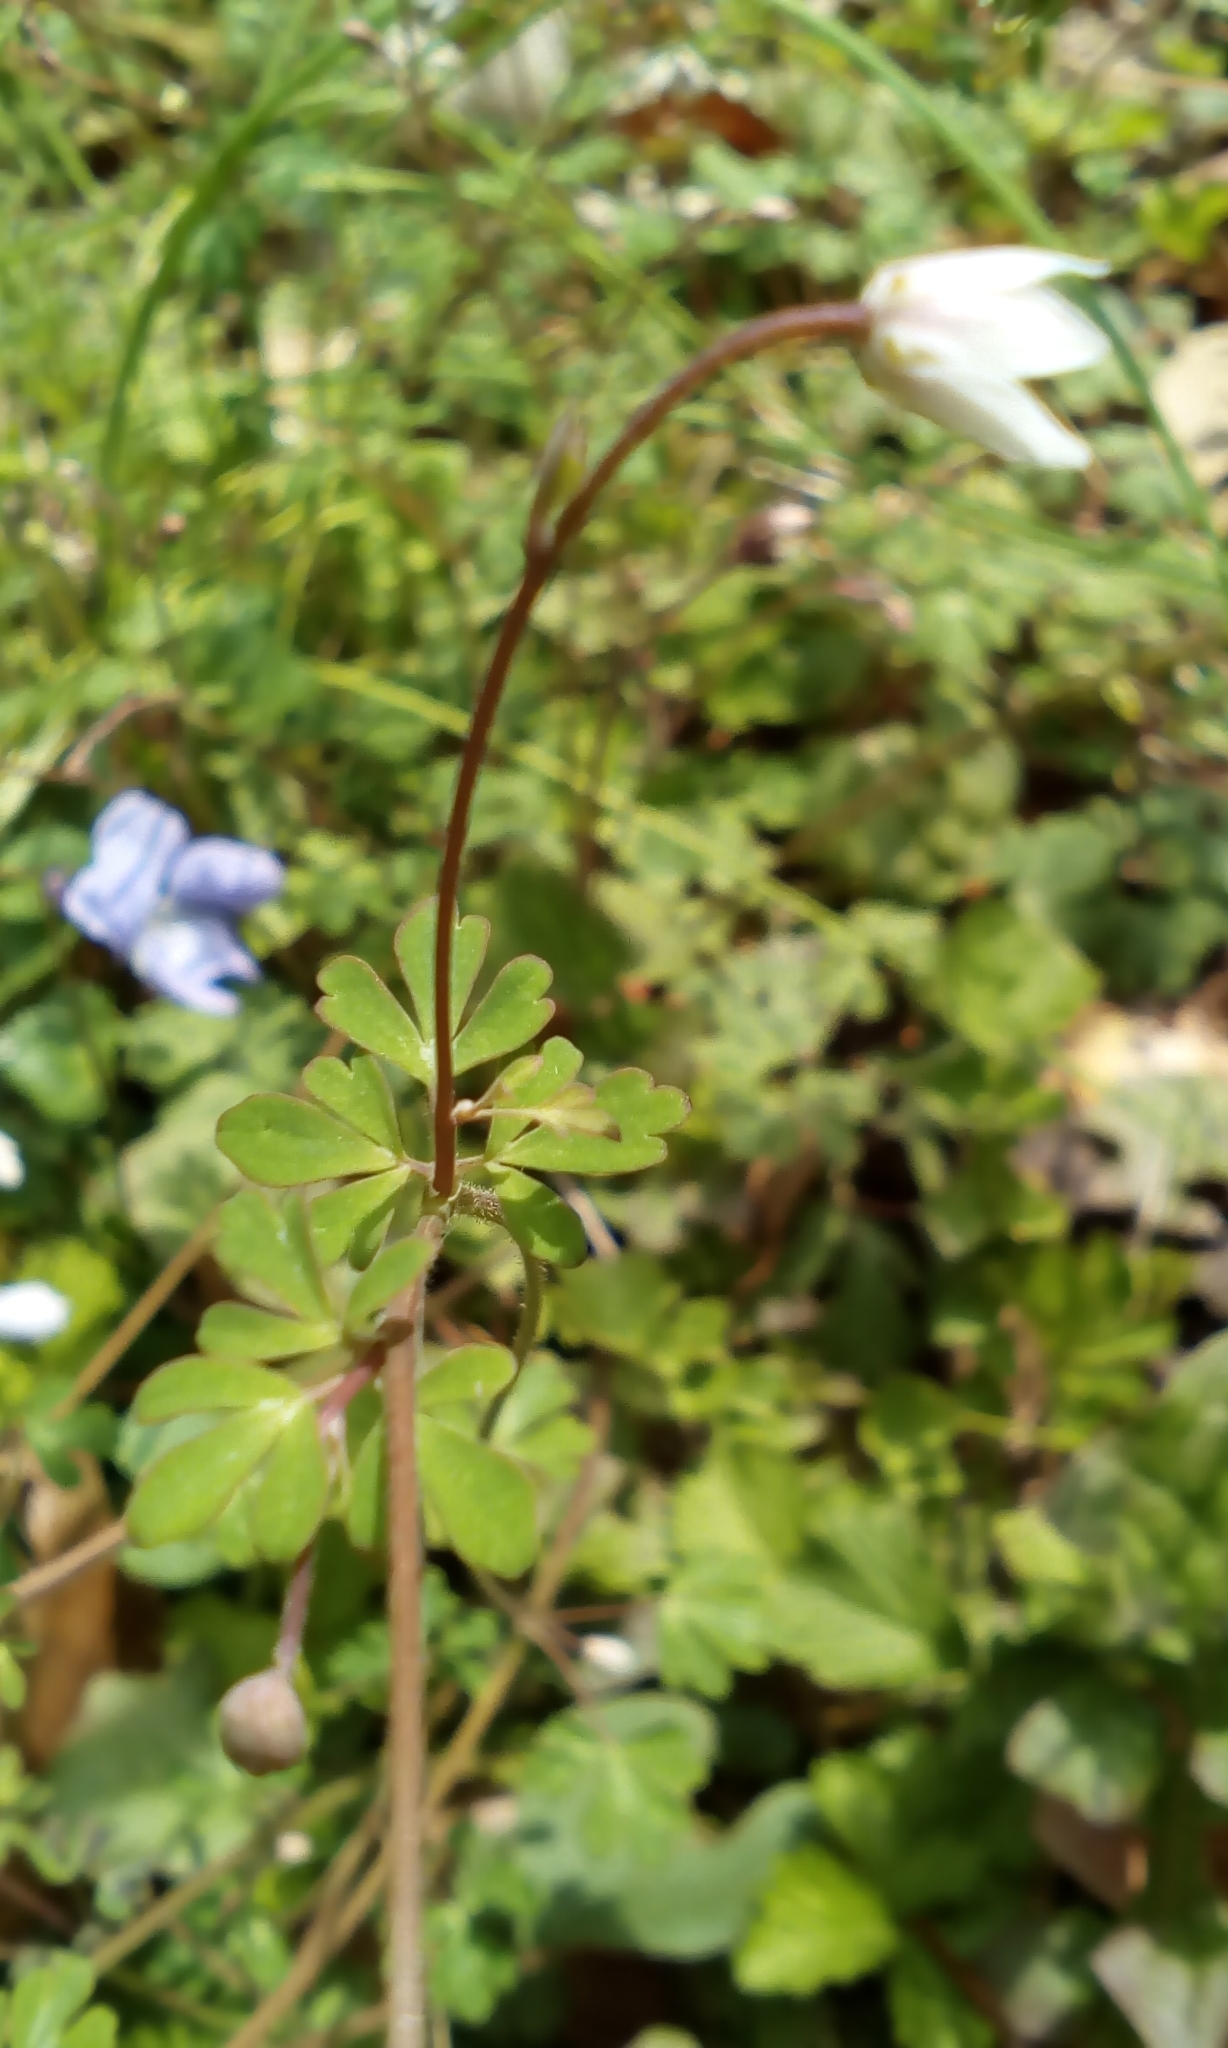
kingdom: Plantae
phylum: Tracheophyta
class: Magnoliopsida
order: Ranunculales
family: Ranunculaceae
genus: Semiaquilegia
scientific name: Semiaquilegia adoxoides
